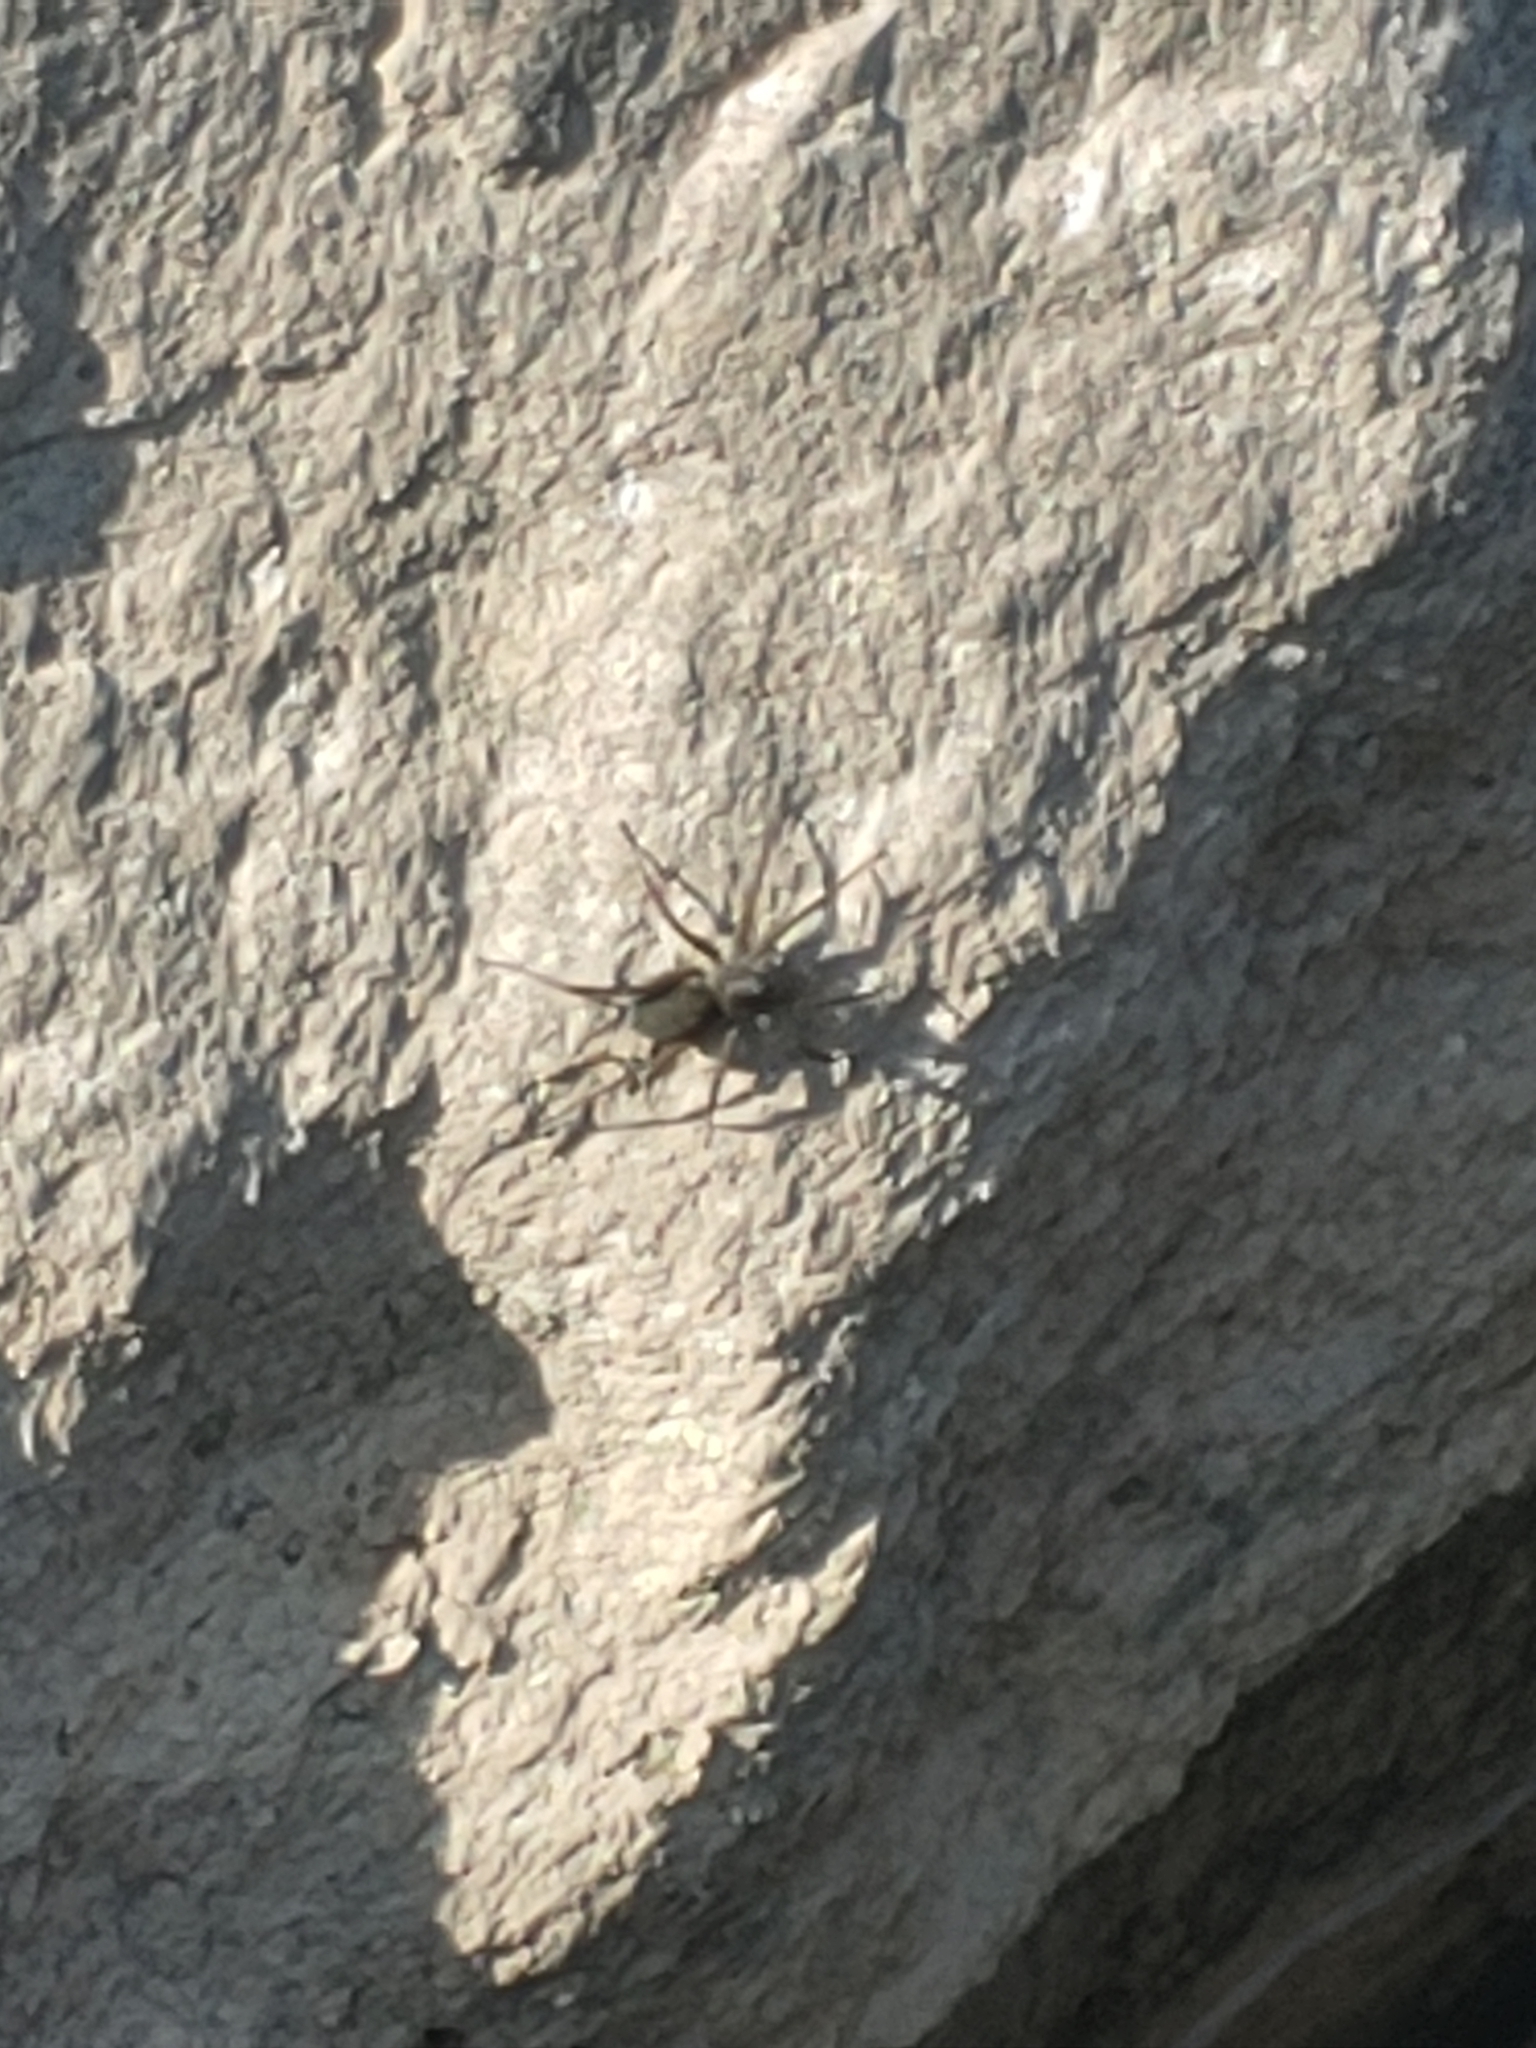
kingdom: Animalia
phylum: Arthropoda
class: Arachnida
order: Araneae
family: Lycosidae
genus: Pardosa
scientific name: Pardosa lapidicina
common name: Stone spider
